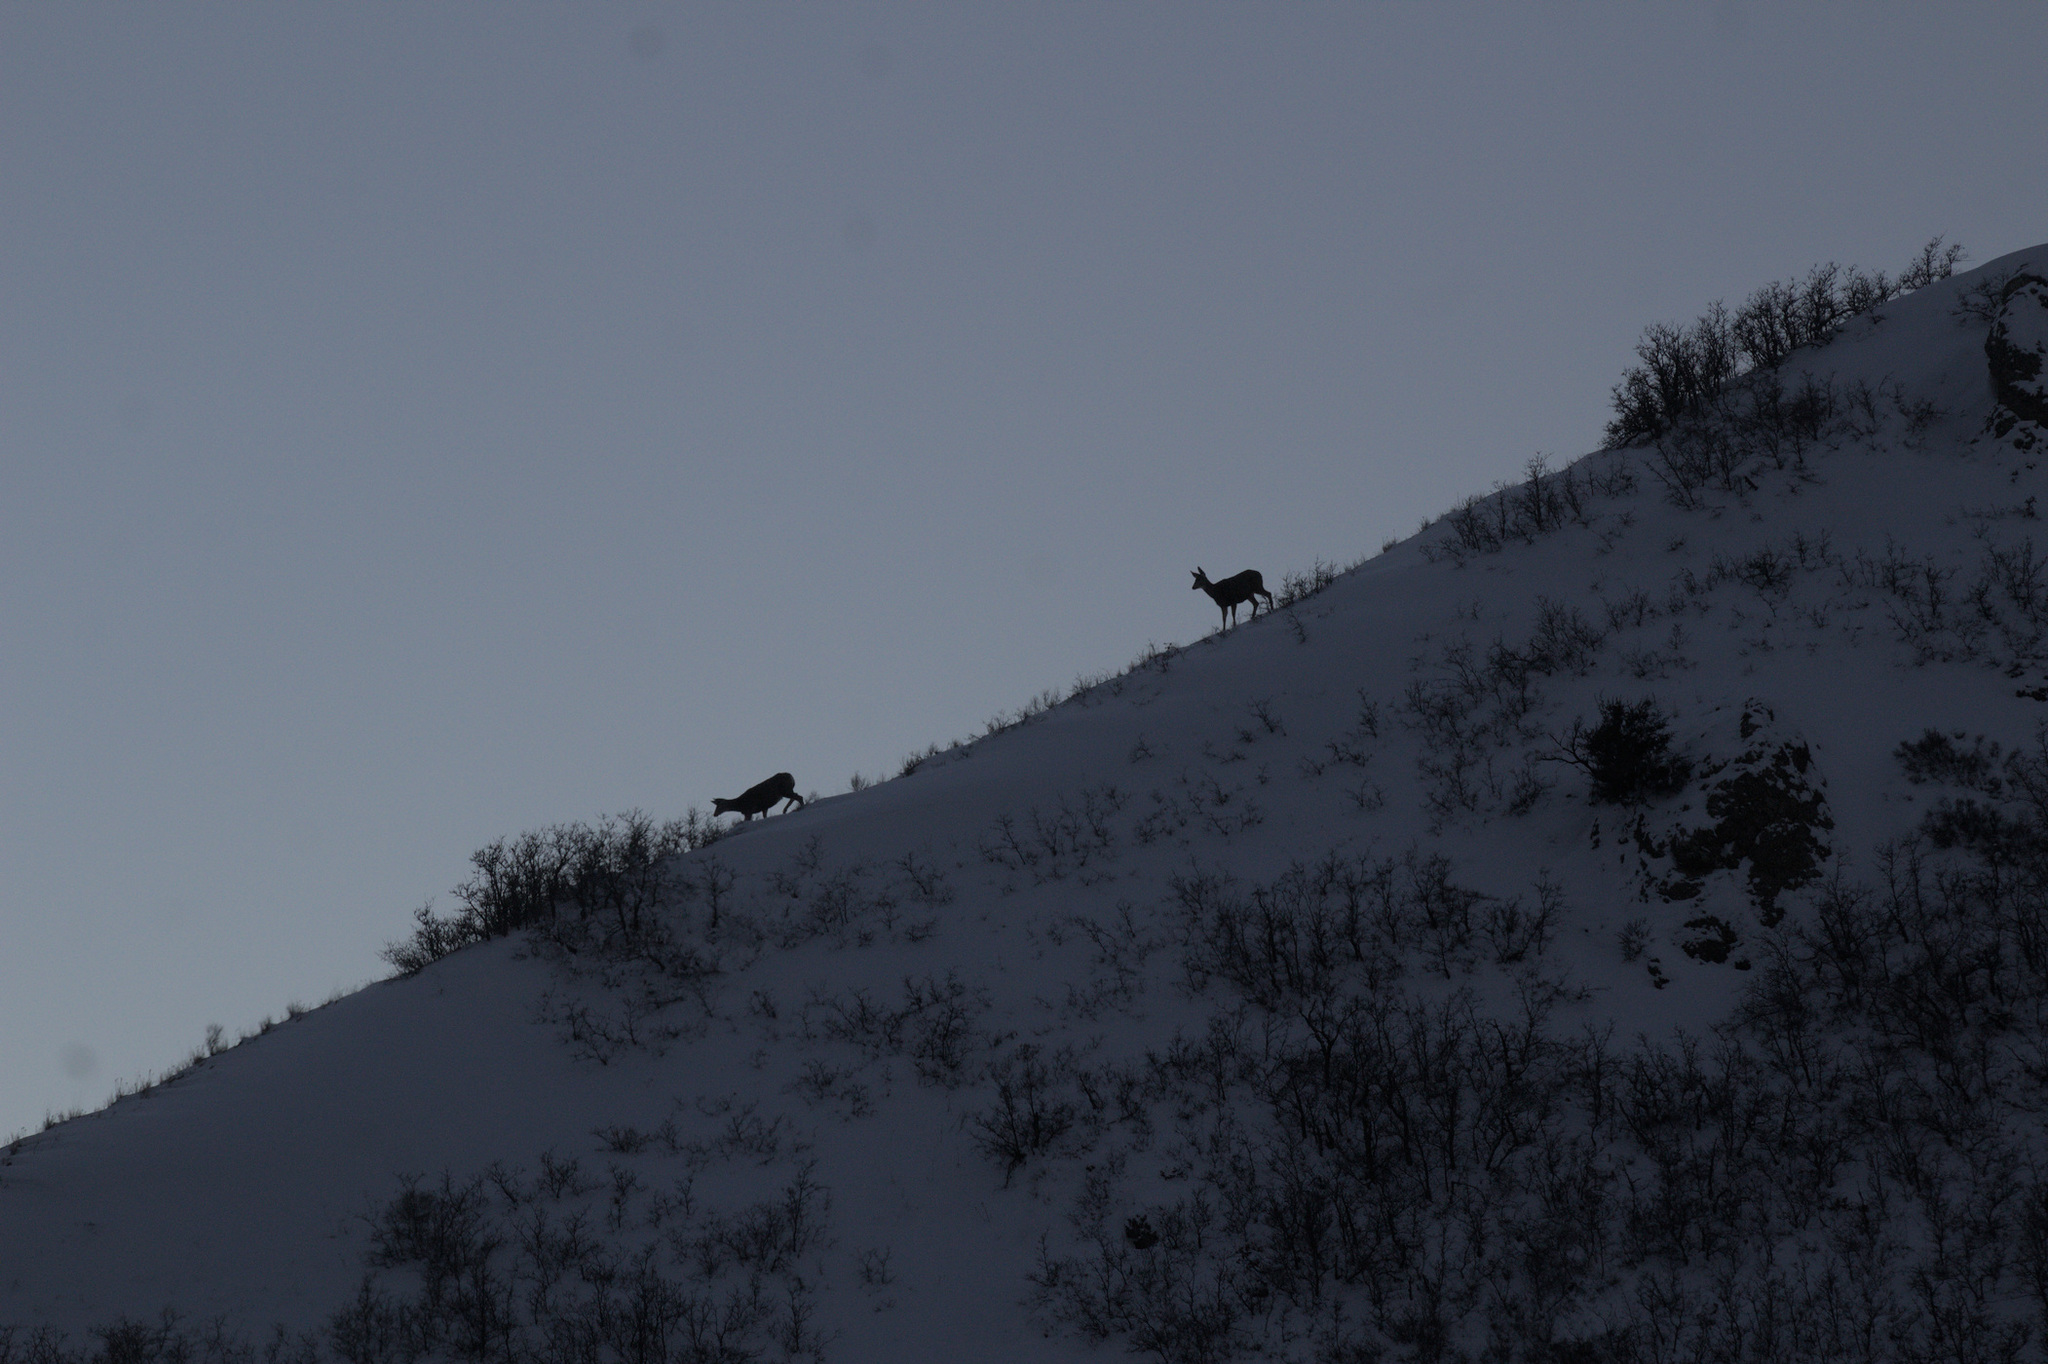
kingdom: Animalia
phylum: Chordata
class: Mammalia
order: Artiodactyla
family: Cervidae
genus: Odocoileus
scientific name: Odocoileus hemionus
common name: Mule deer
